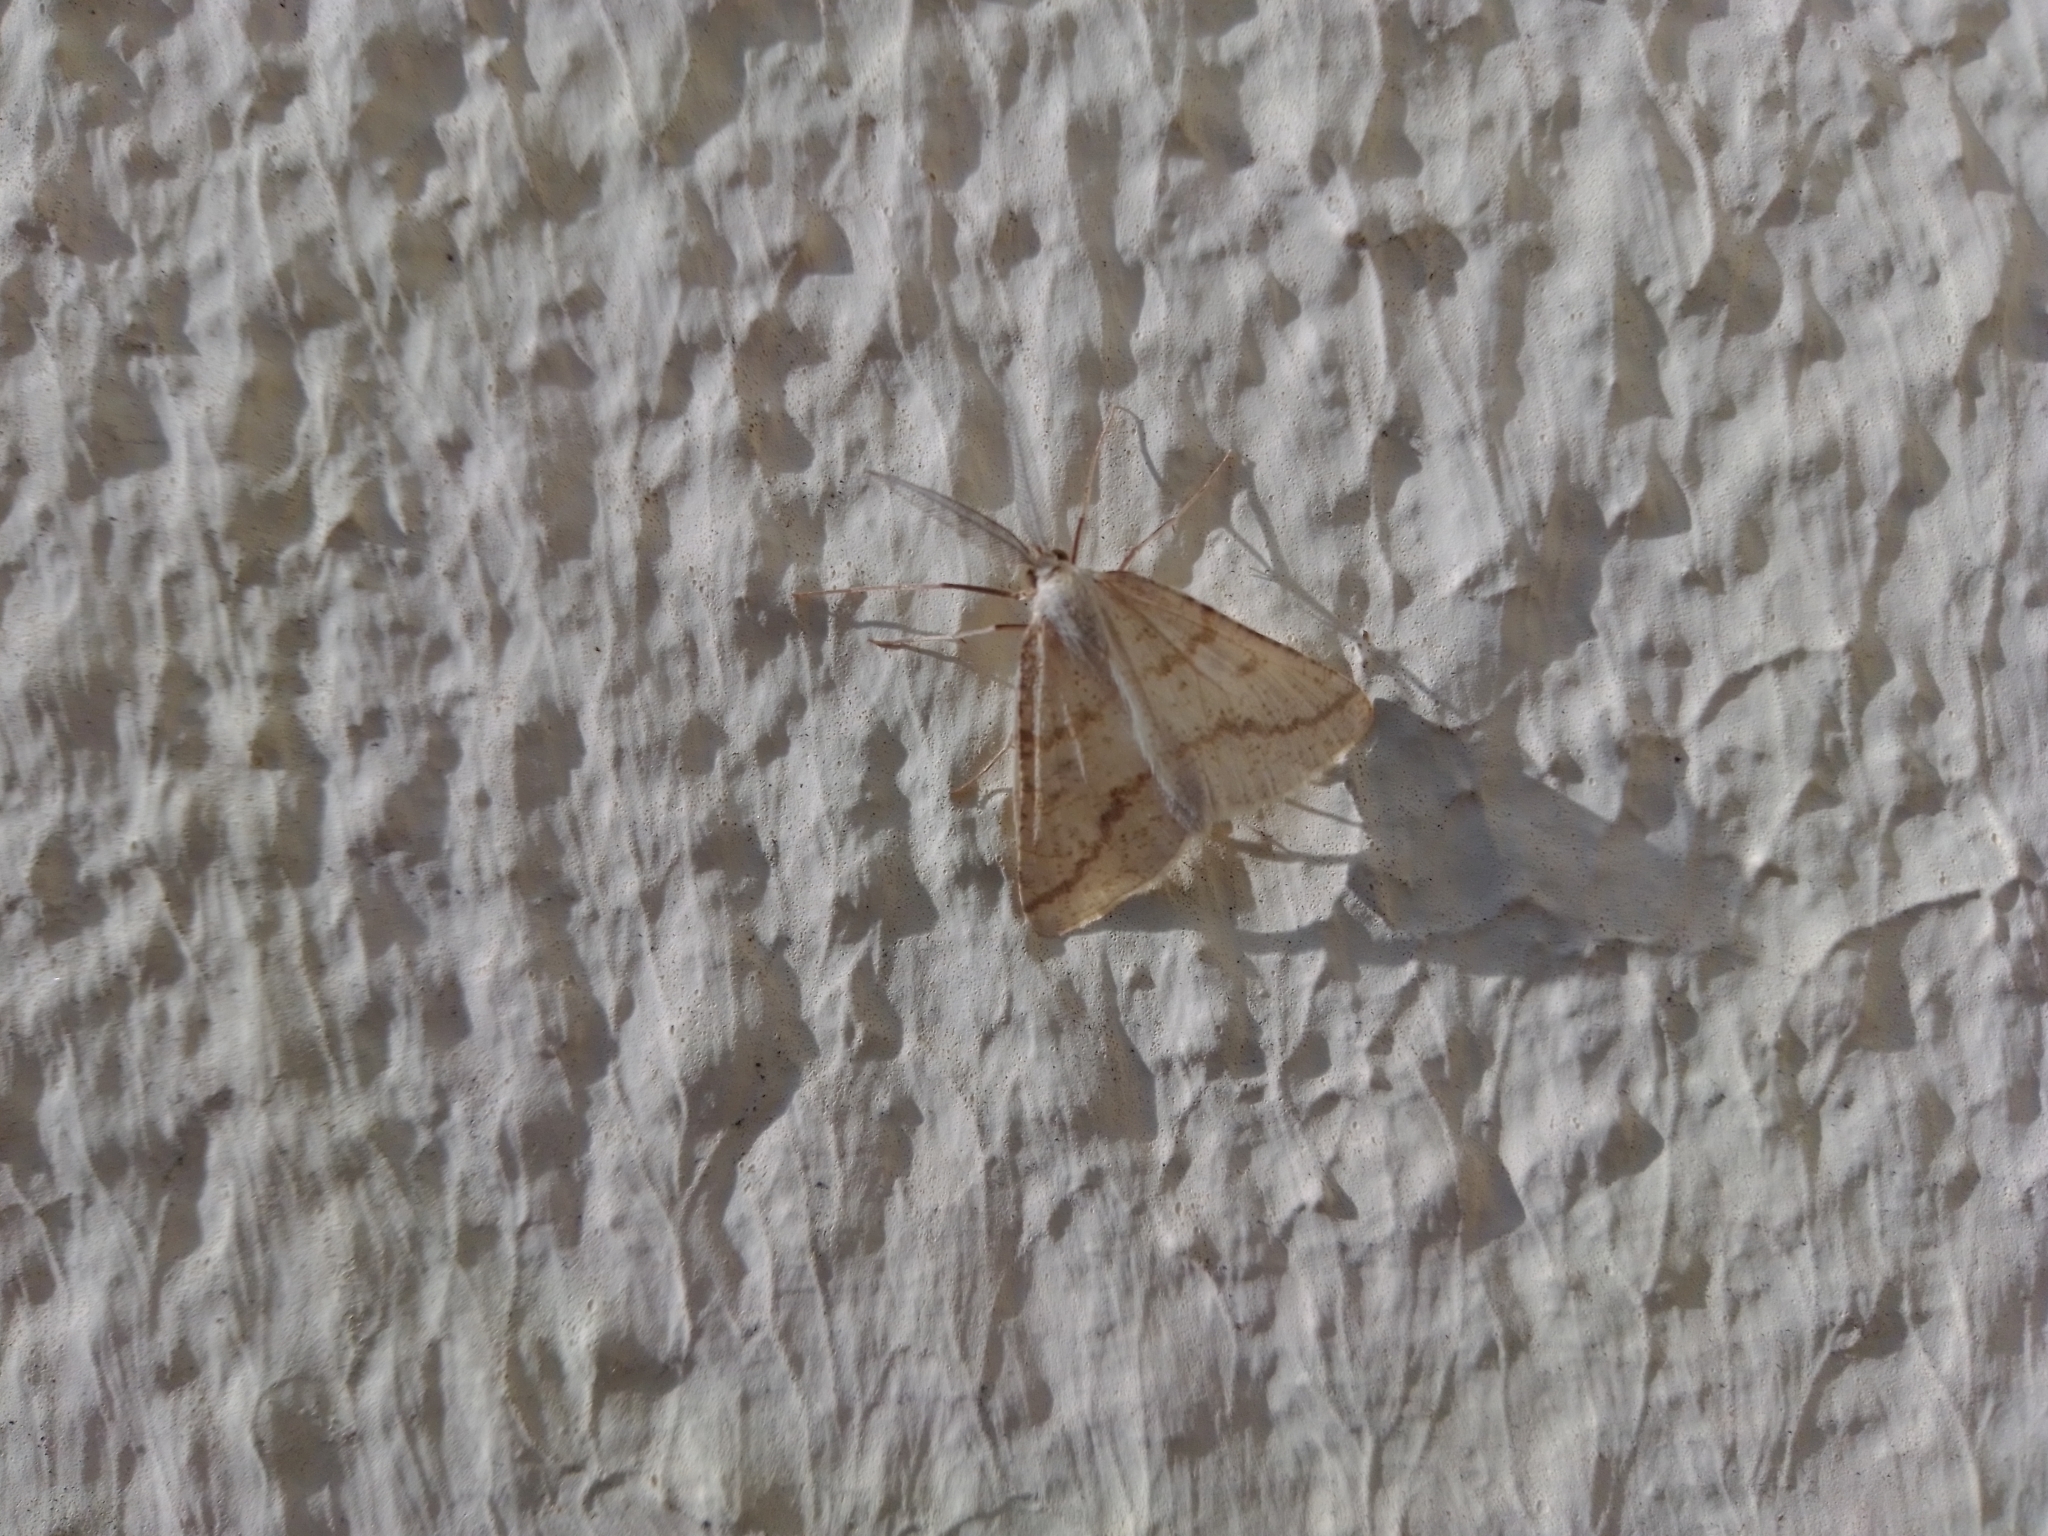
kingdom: Animalia
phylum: Arthropoda
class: Insecta
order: Lepidoptera
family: Geometridae
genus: Aspitates
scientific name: Aspitates ochrearia
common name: Yellow belle
